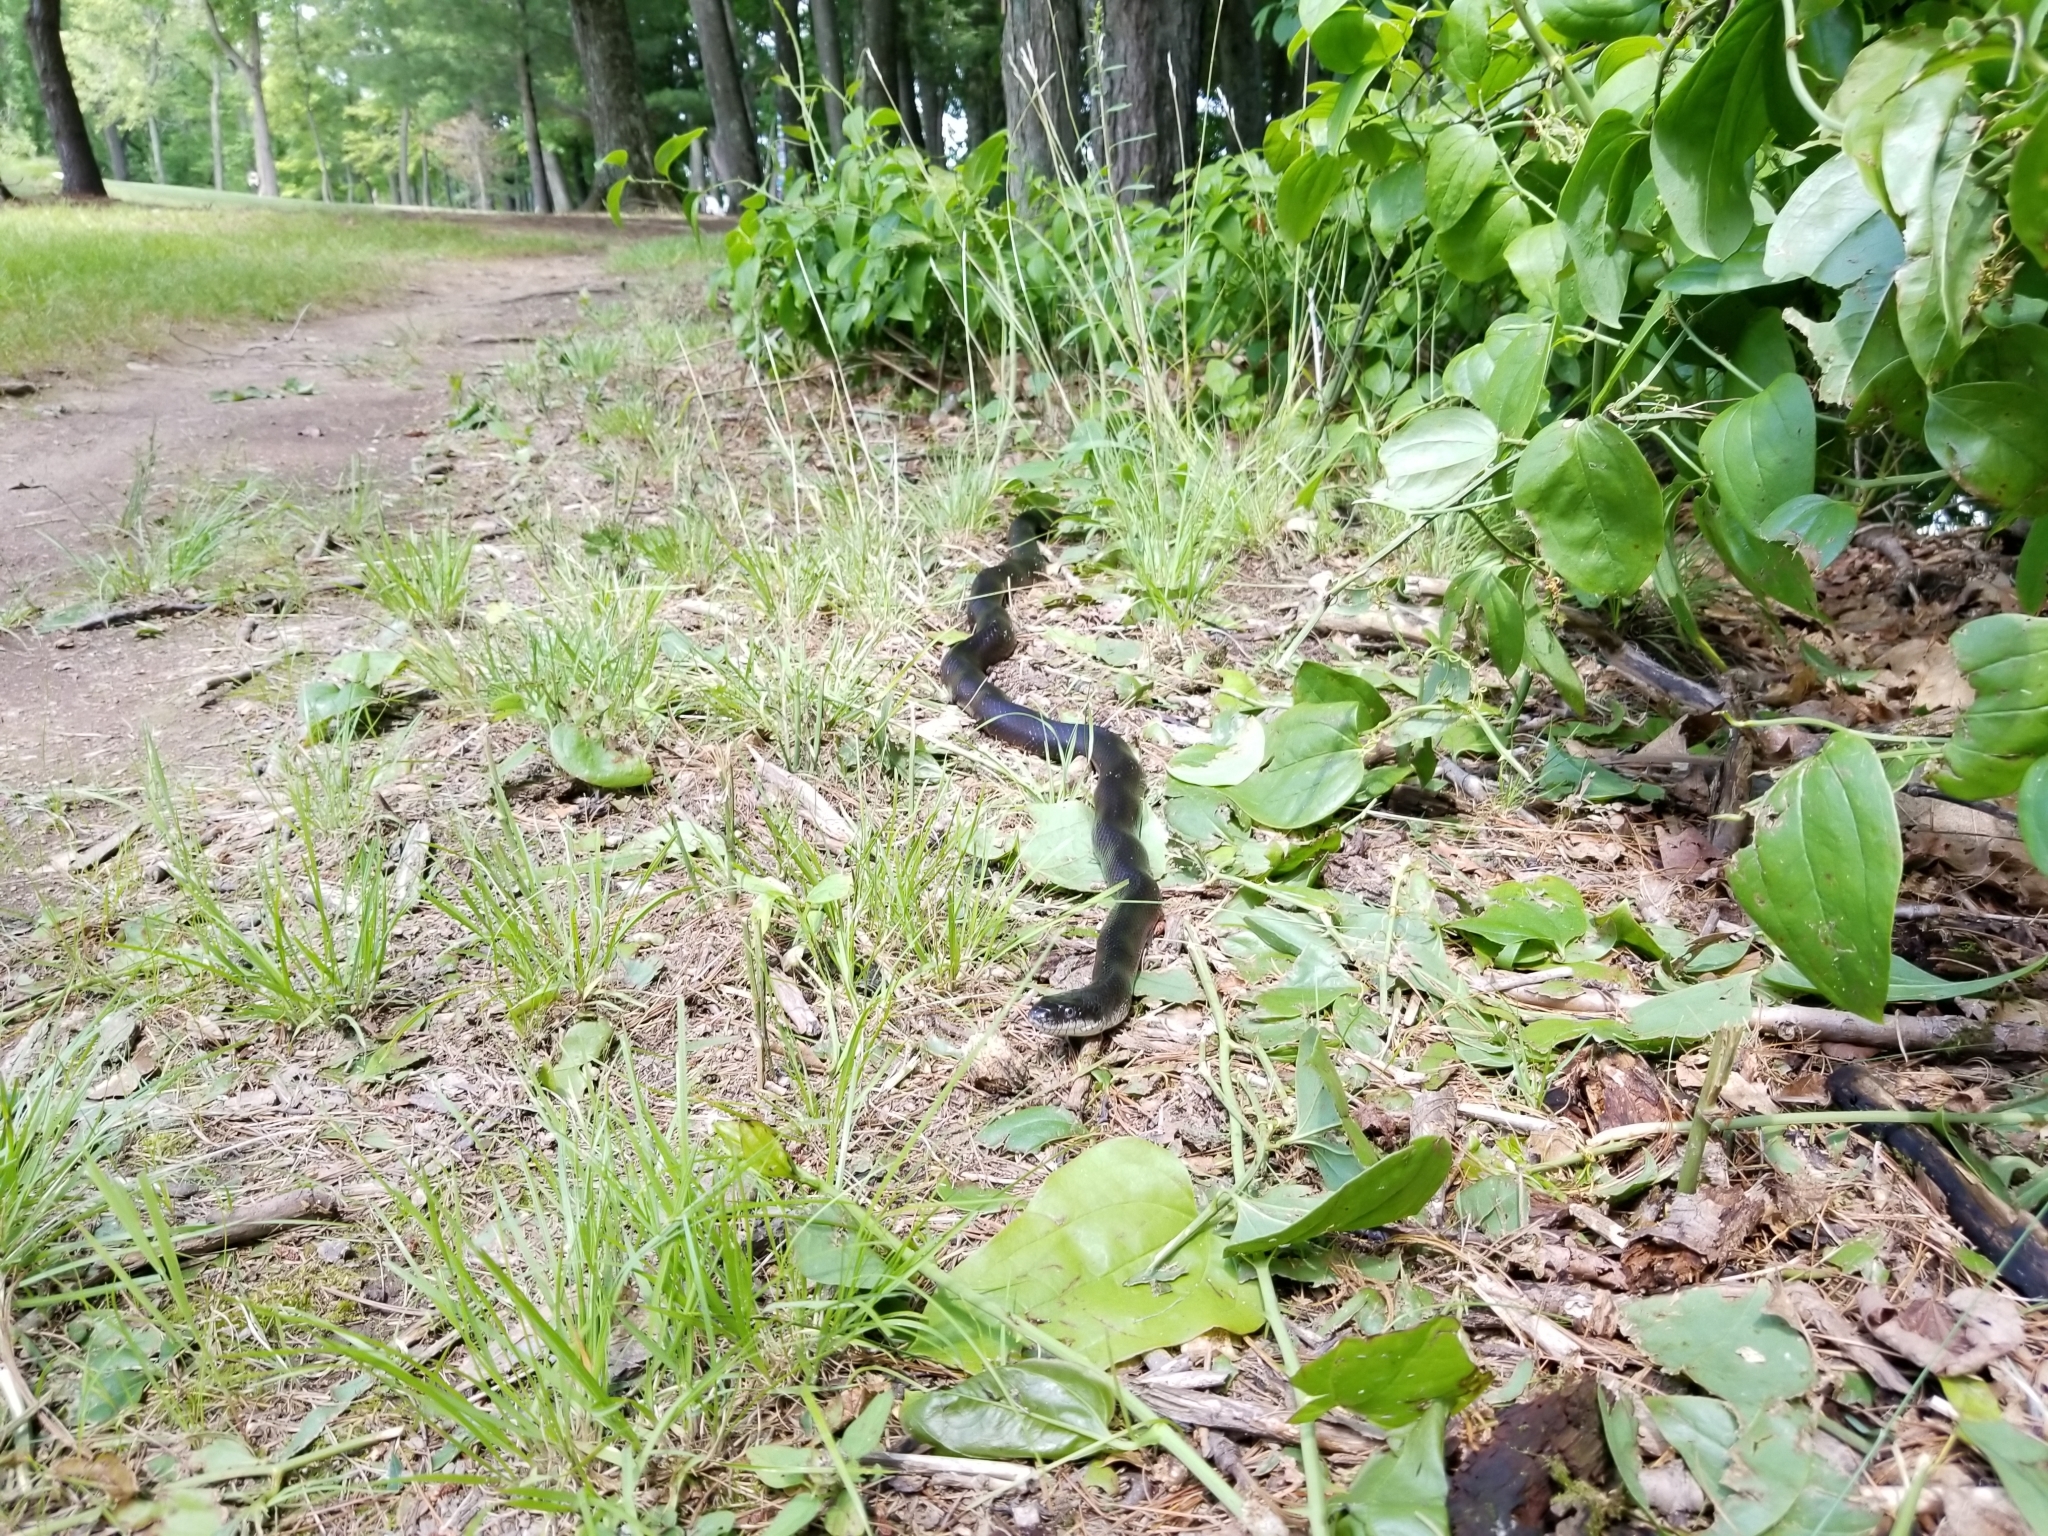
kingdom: Animalia
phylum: Chordata
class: Squamata
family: Colubridae
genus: Pantherophis
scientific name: Pantherophis alleghaniensis
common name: Eastern rat snake
